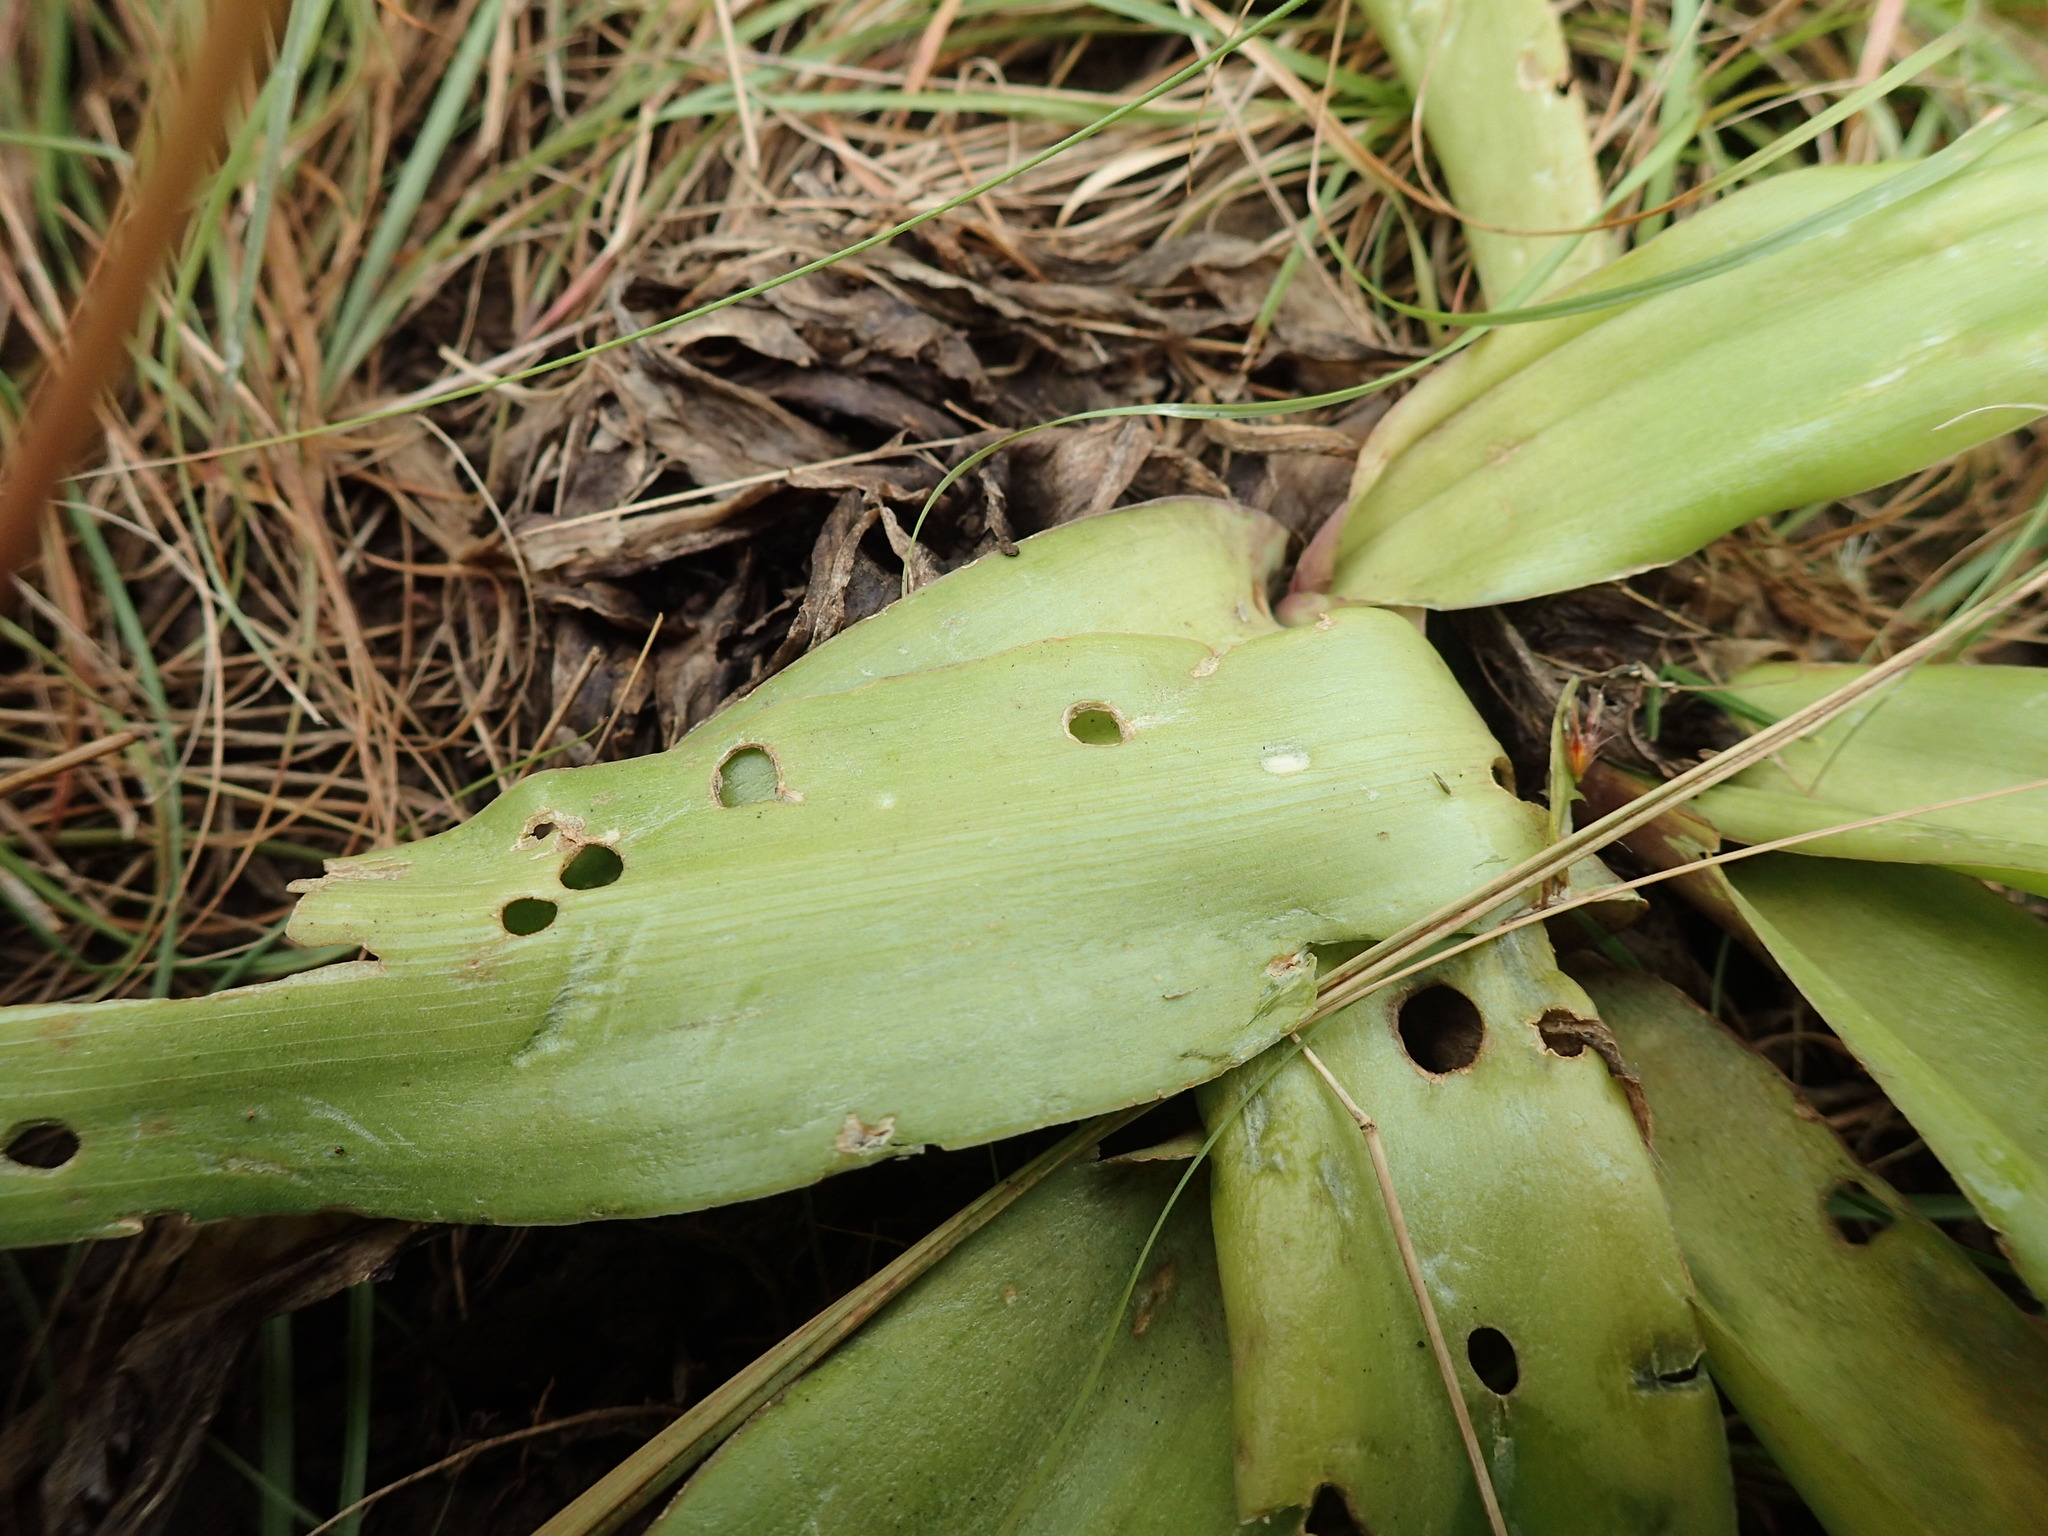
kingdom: Plantae
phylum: Tracheophyta
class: Liliopsida
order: Asparagales
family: Asparagaceae
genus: Ledebouria
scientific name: Ledebouria asperifolia
